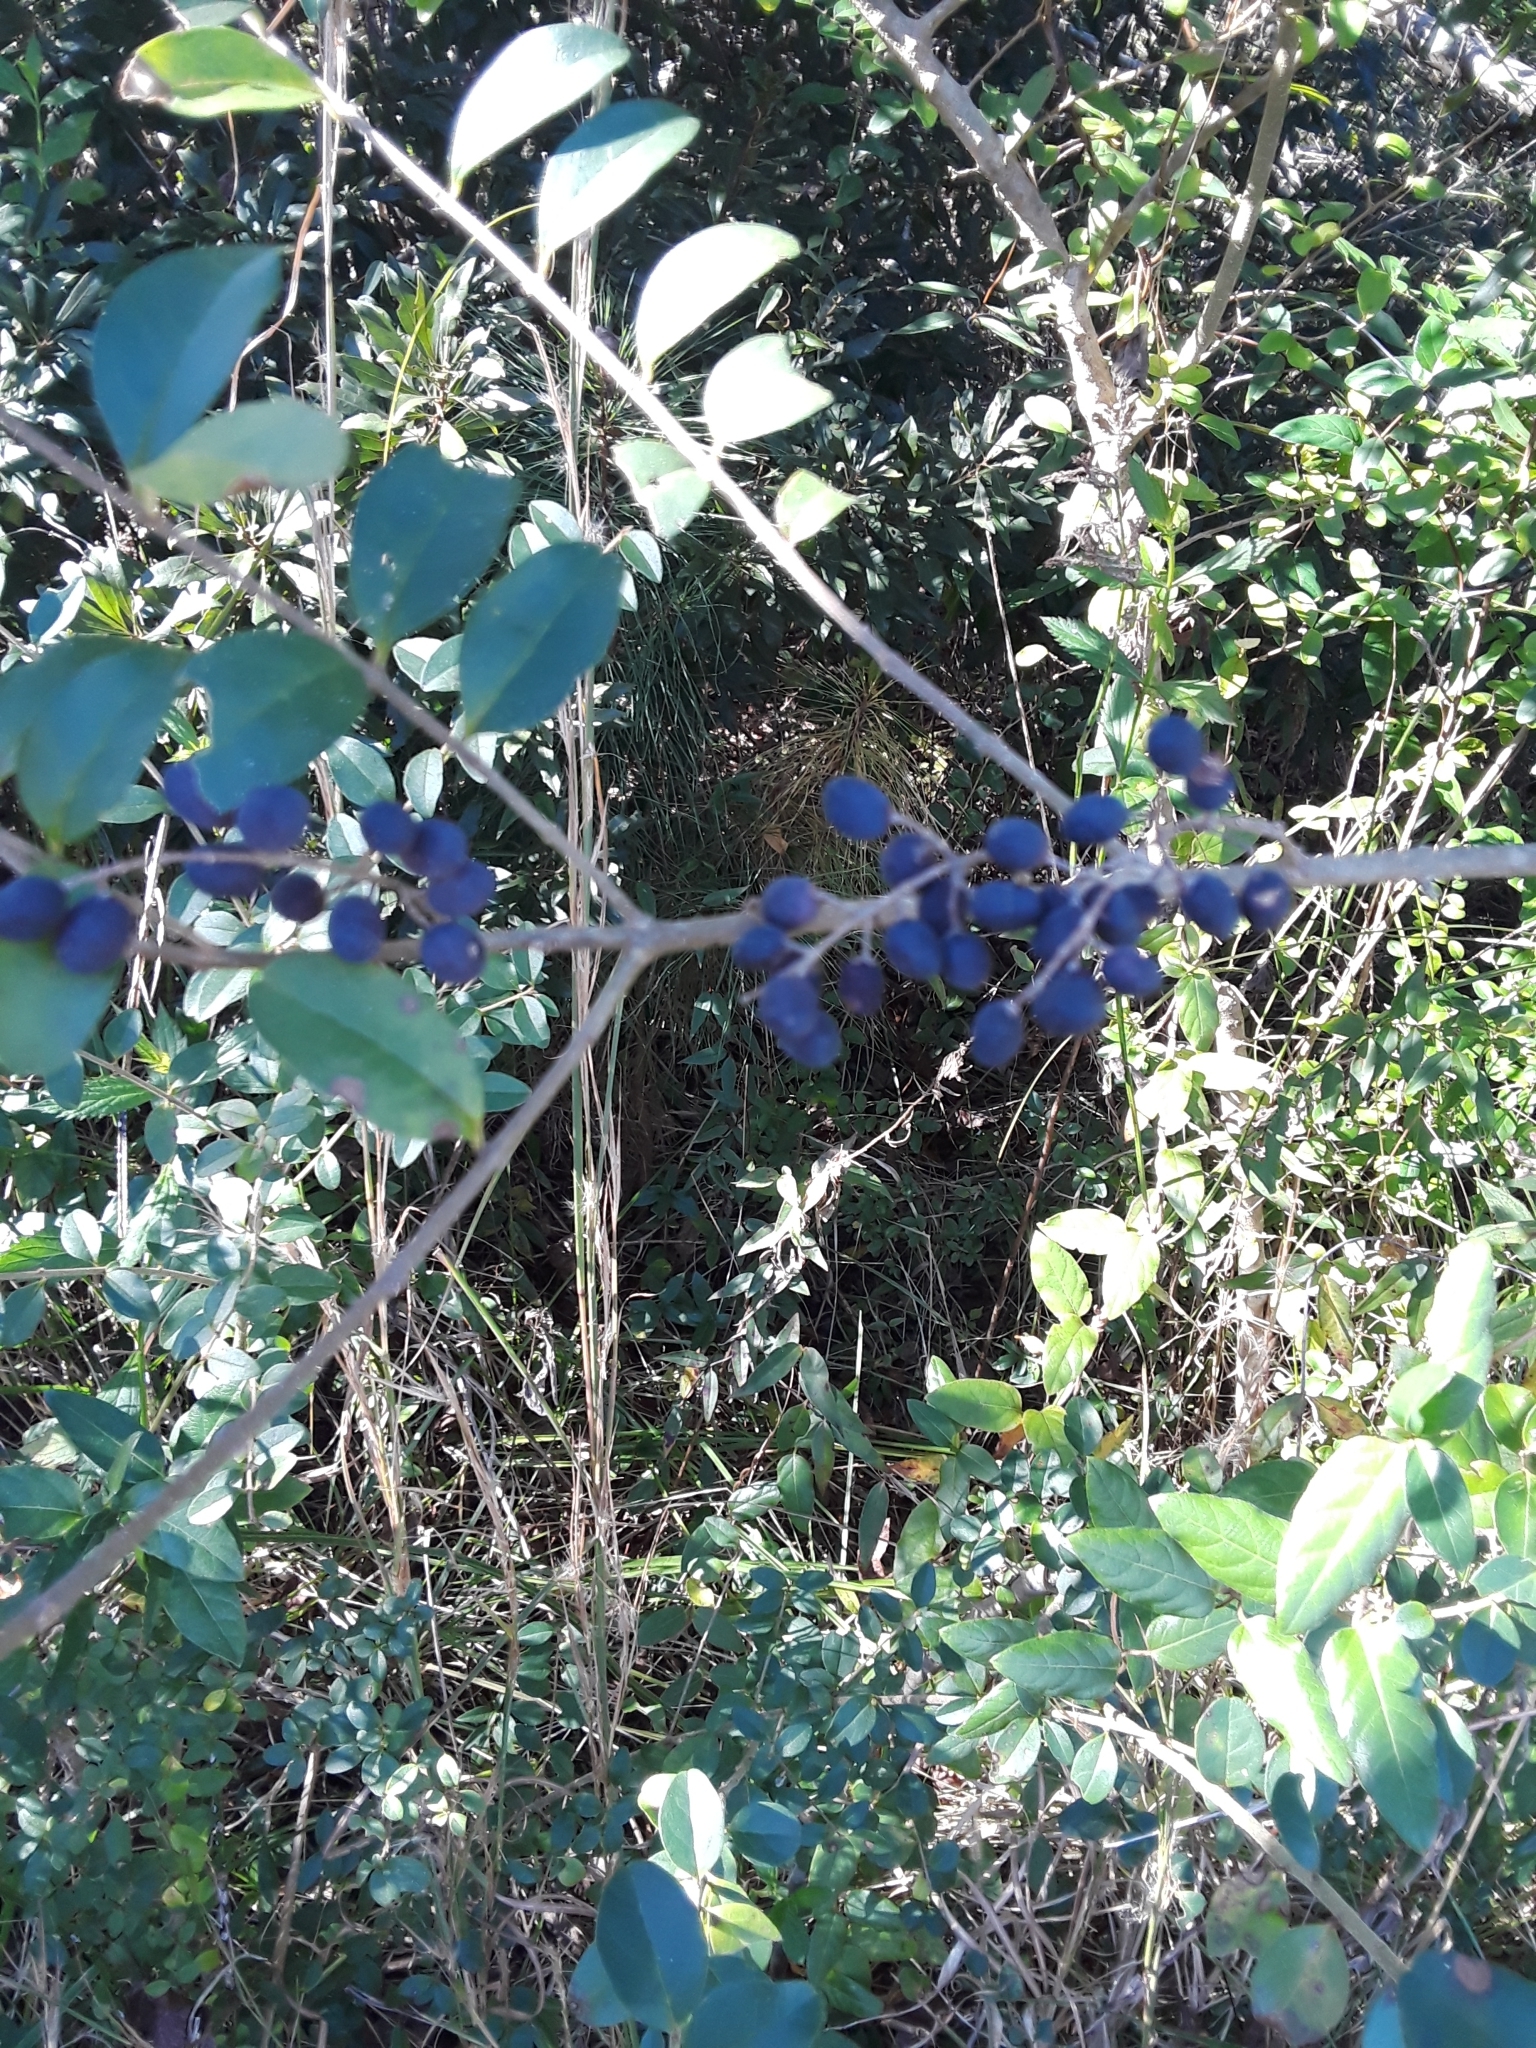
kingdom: Plantae
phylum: Tracheophyta
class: Magnoliopsida
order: Lamiales
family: Oleaceae
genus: Ligustrum
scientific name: Ligustrum sinense
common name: Chinese privet
